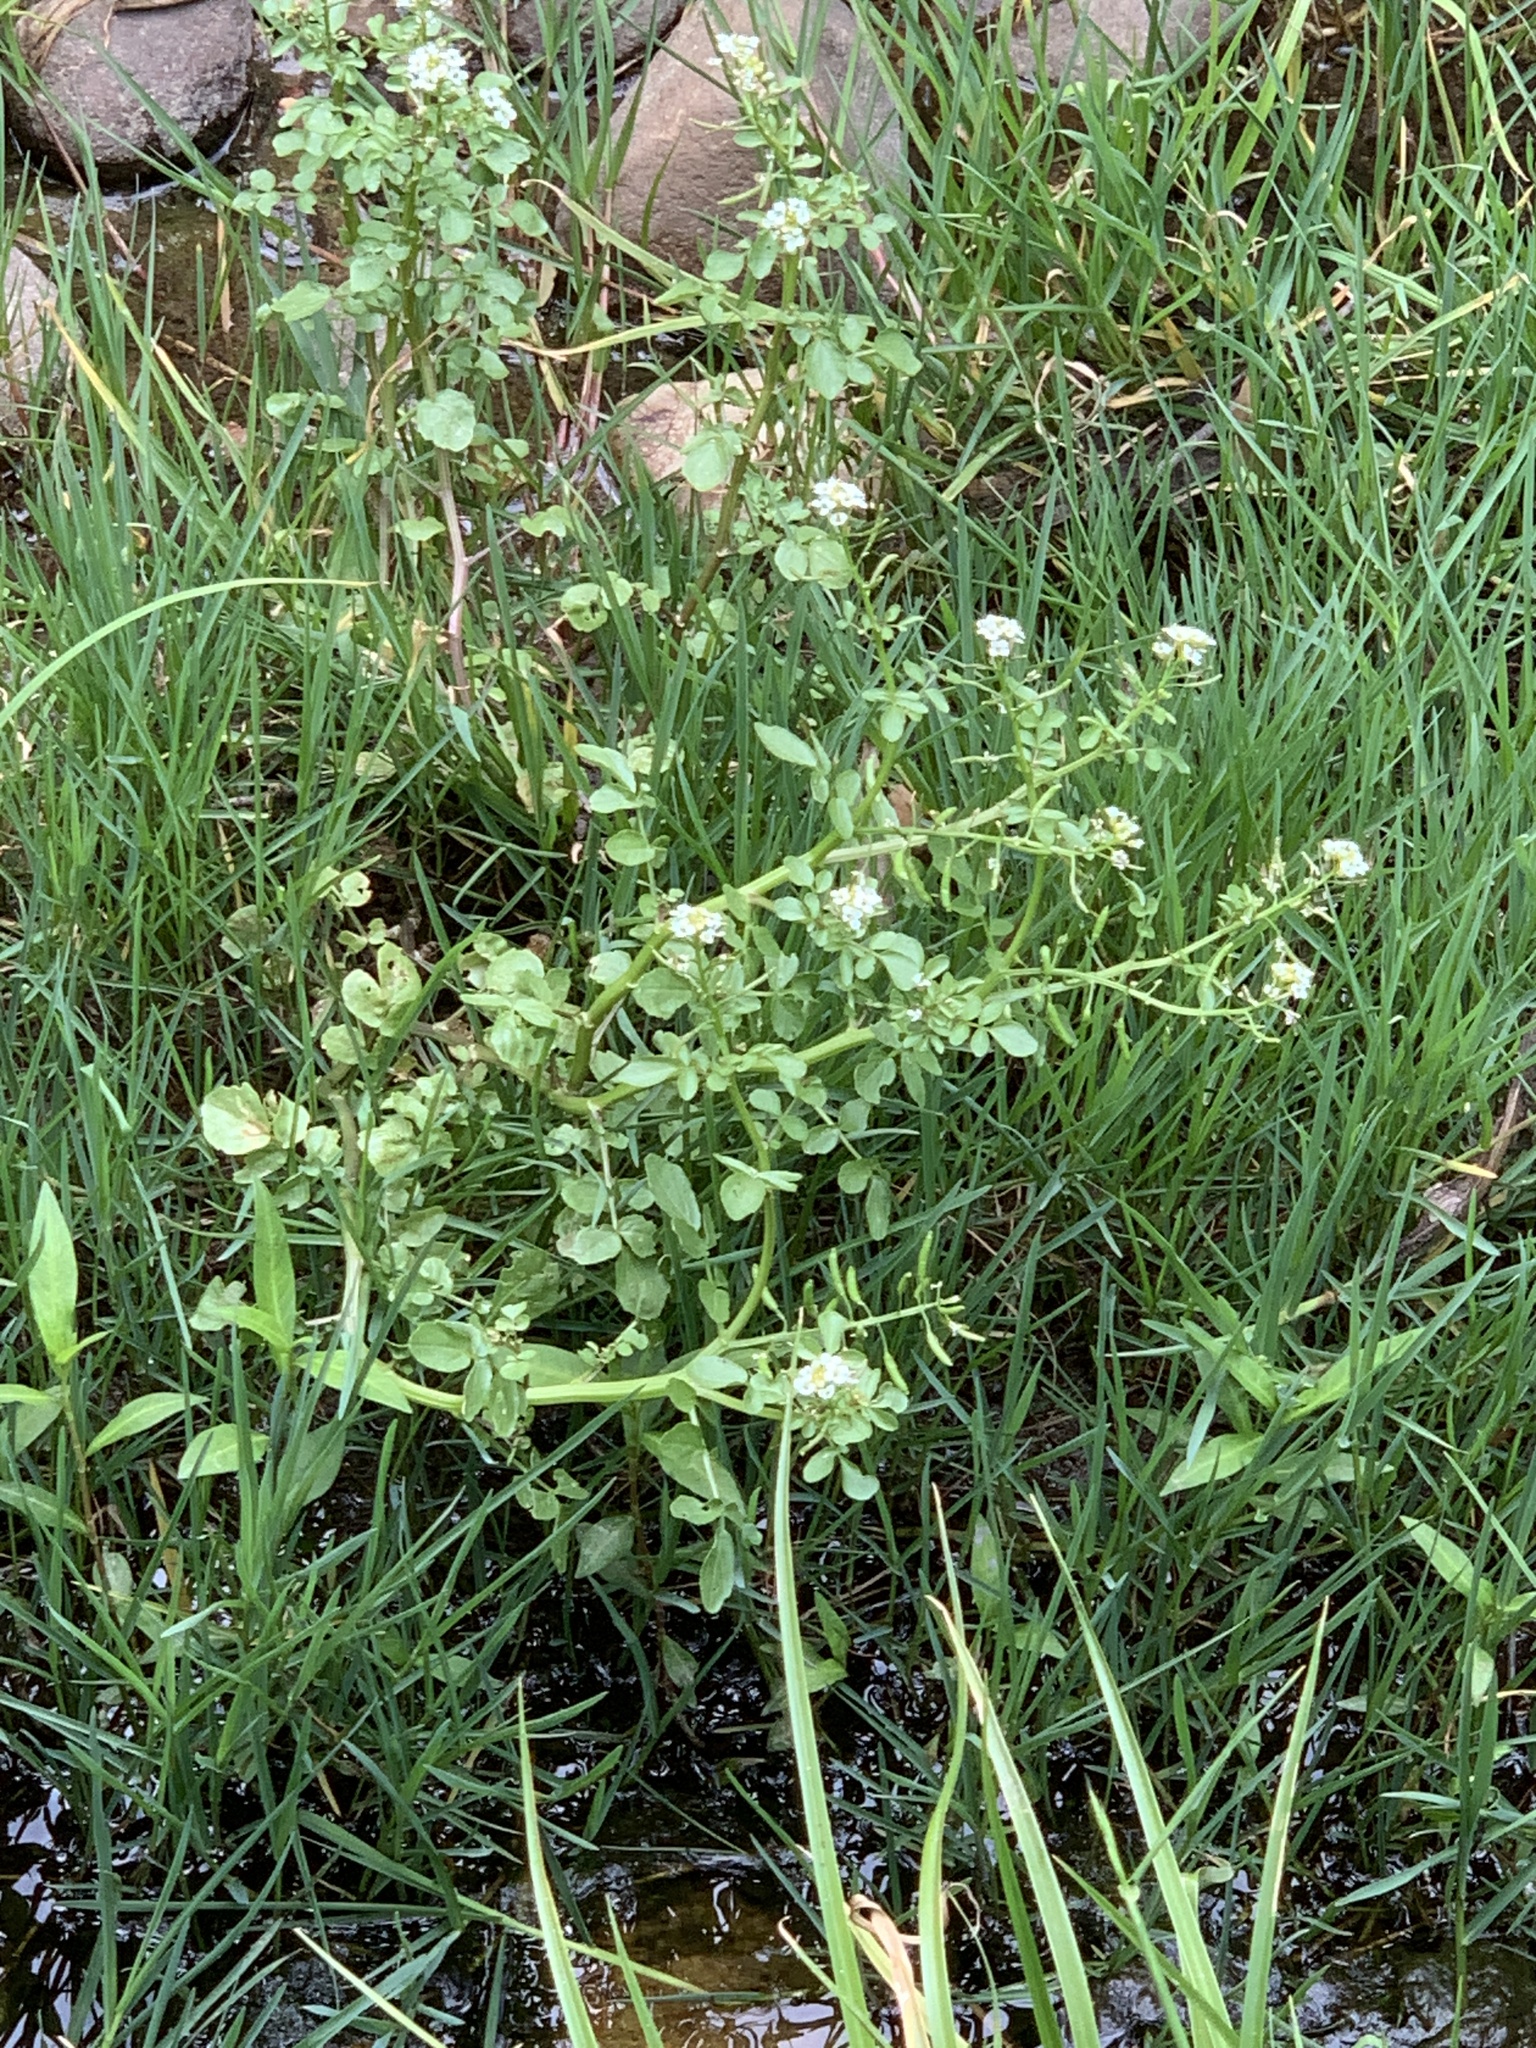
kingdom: Plantae
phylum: Tracheophyta
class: Magnoliopsida
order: Brassicales
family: Brassicaceae
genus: Nasturtium
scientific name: Nasturtium officinale
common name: Watercress
